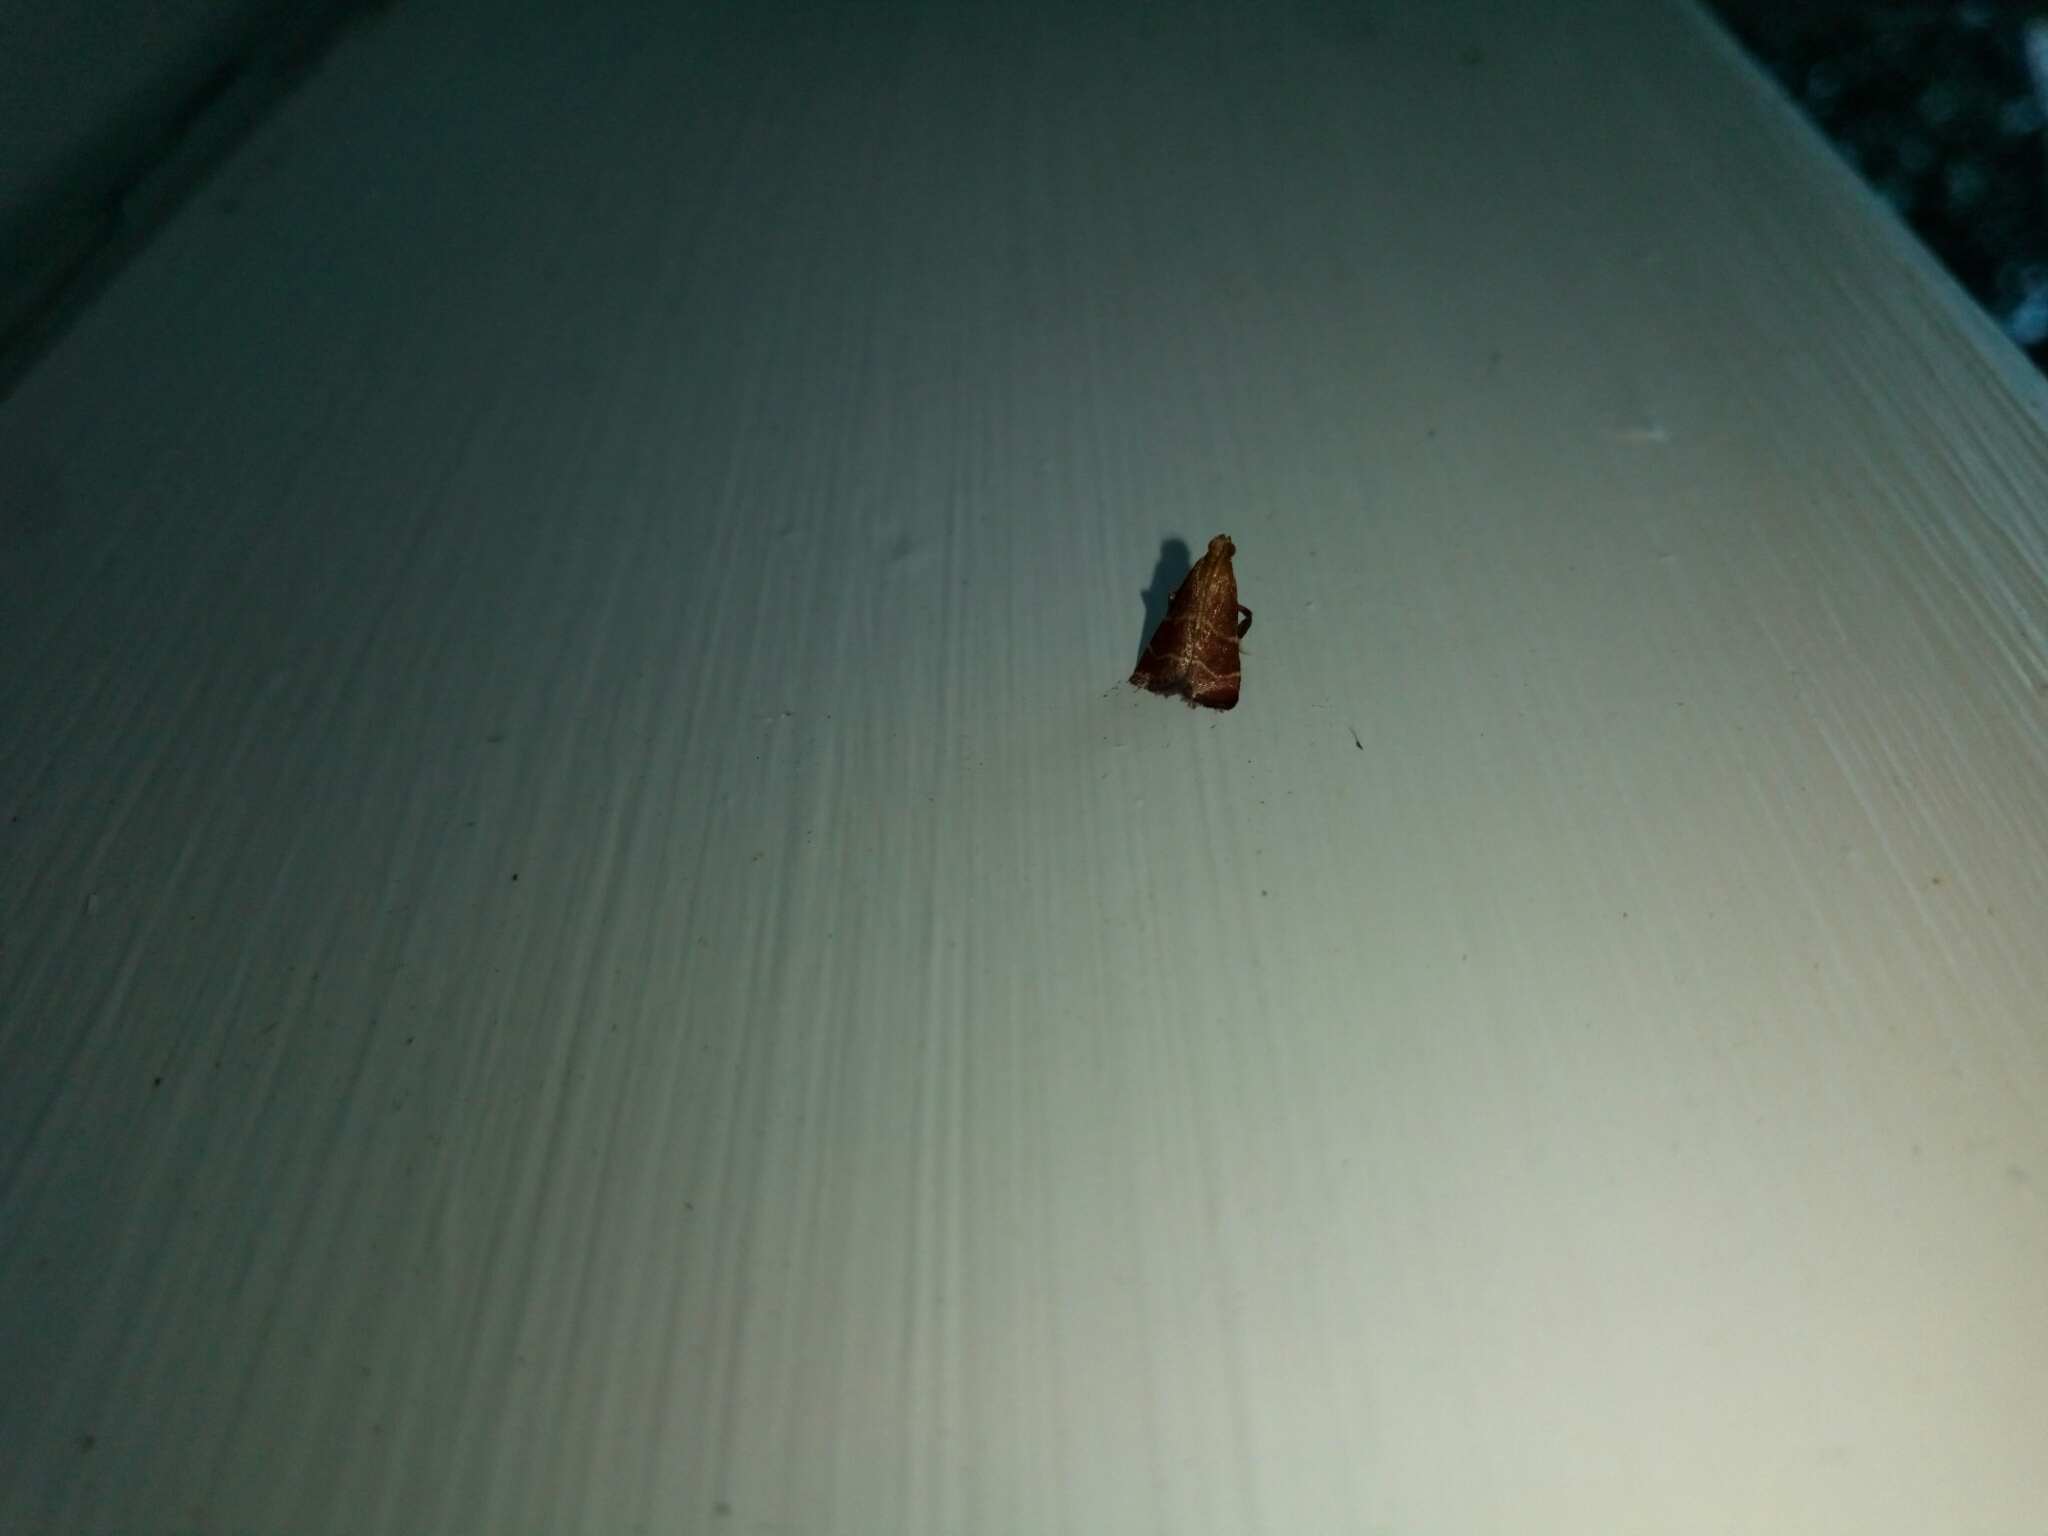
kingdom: Animalia
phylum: Arthropoda
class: Insecta
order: Lepidoptera
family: Pyralidae
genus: Arta
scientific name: Arta statalis
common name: Posturing arta moth
